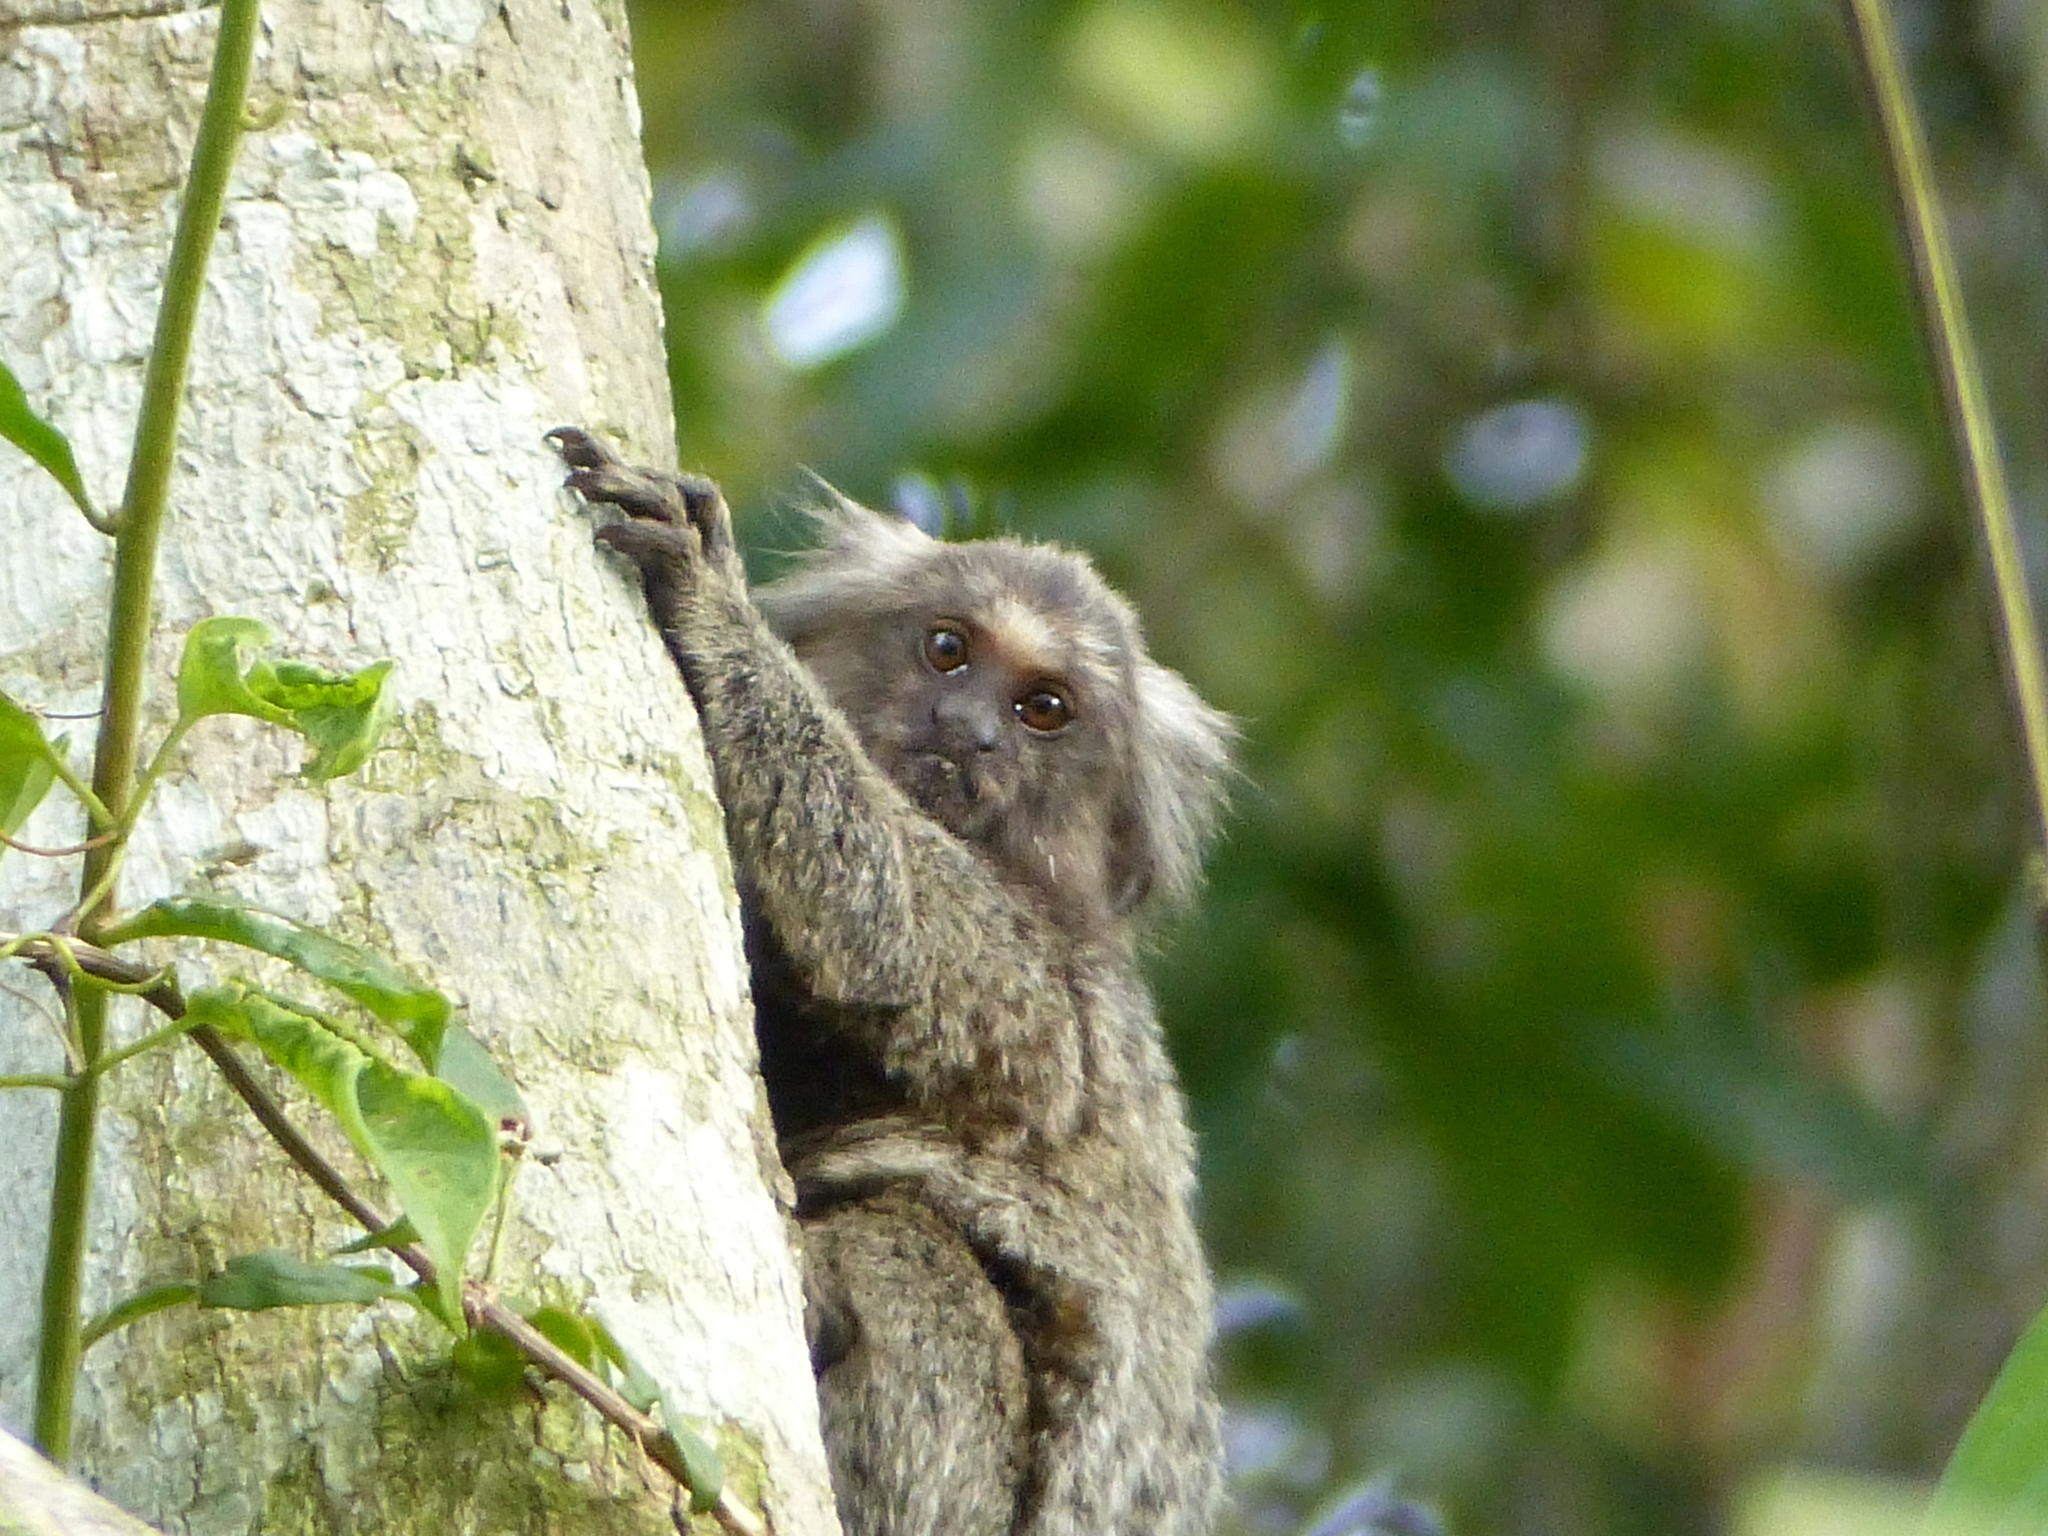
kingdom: Animalia
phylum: Chordata
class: Mammalia
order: Primates
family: Callitrichidae
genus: Callithrix
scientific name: Callithrix jacchus
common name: Common marmoset
